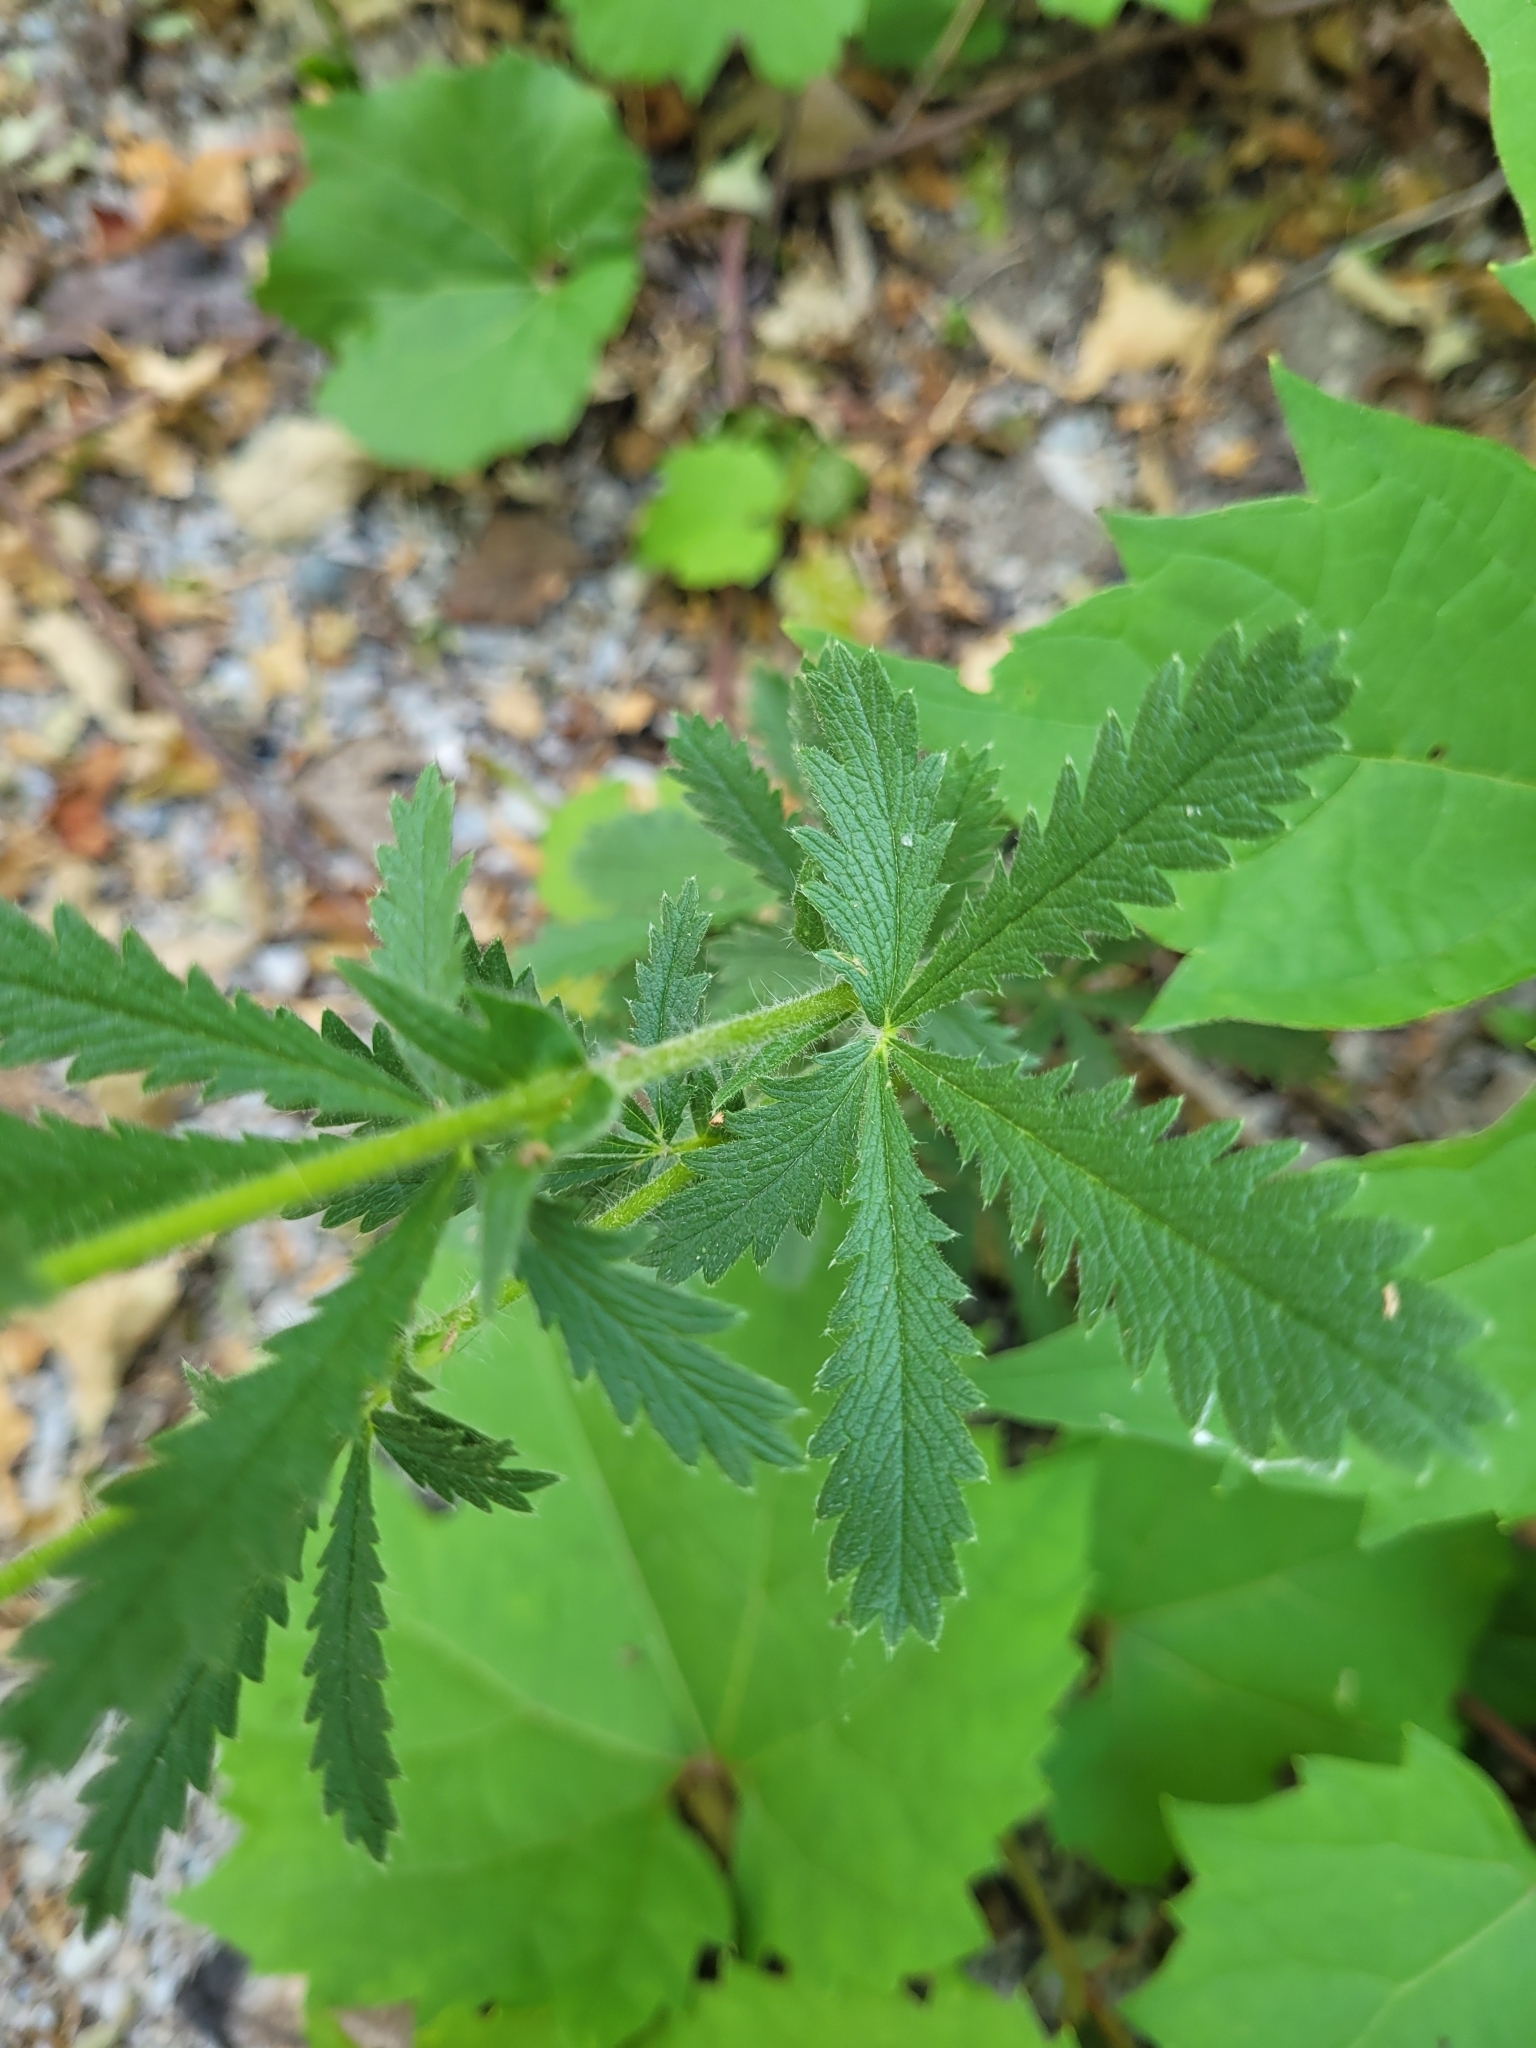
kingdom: Plantae
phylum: Tracheophyta
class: Magnoliopsida
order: Rosales
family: Rosaceae
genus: Potentilla
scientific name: Potentilla recta
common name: Sulphur cinquefoil
